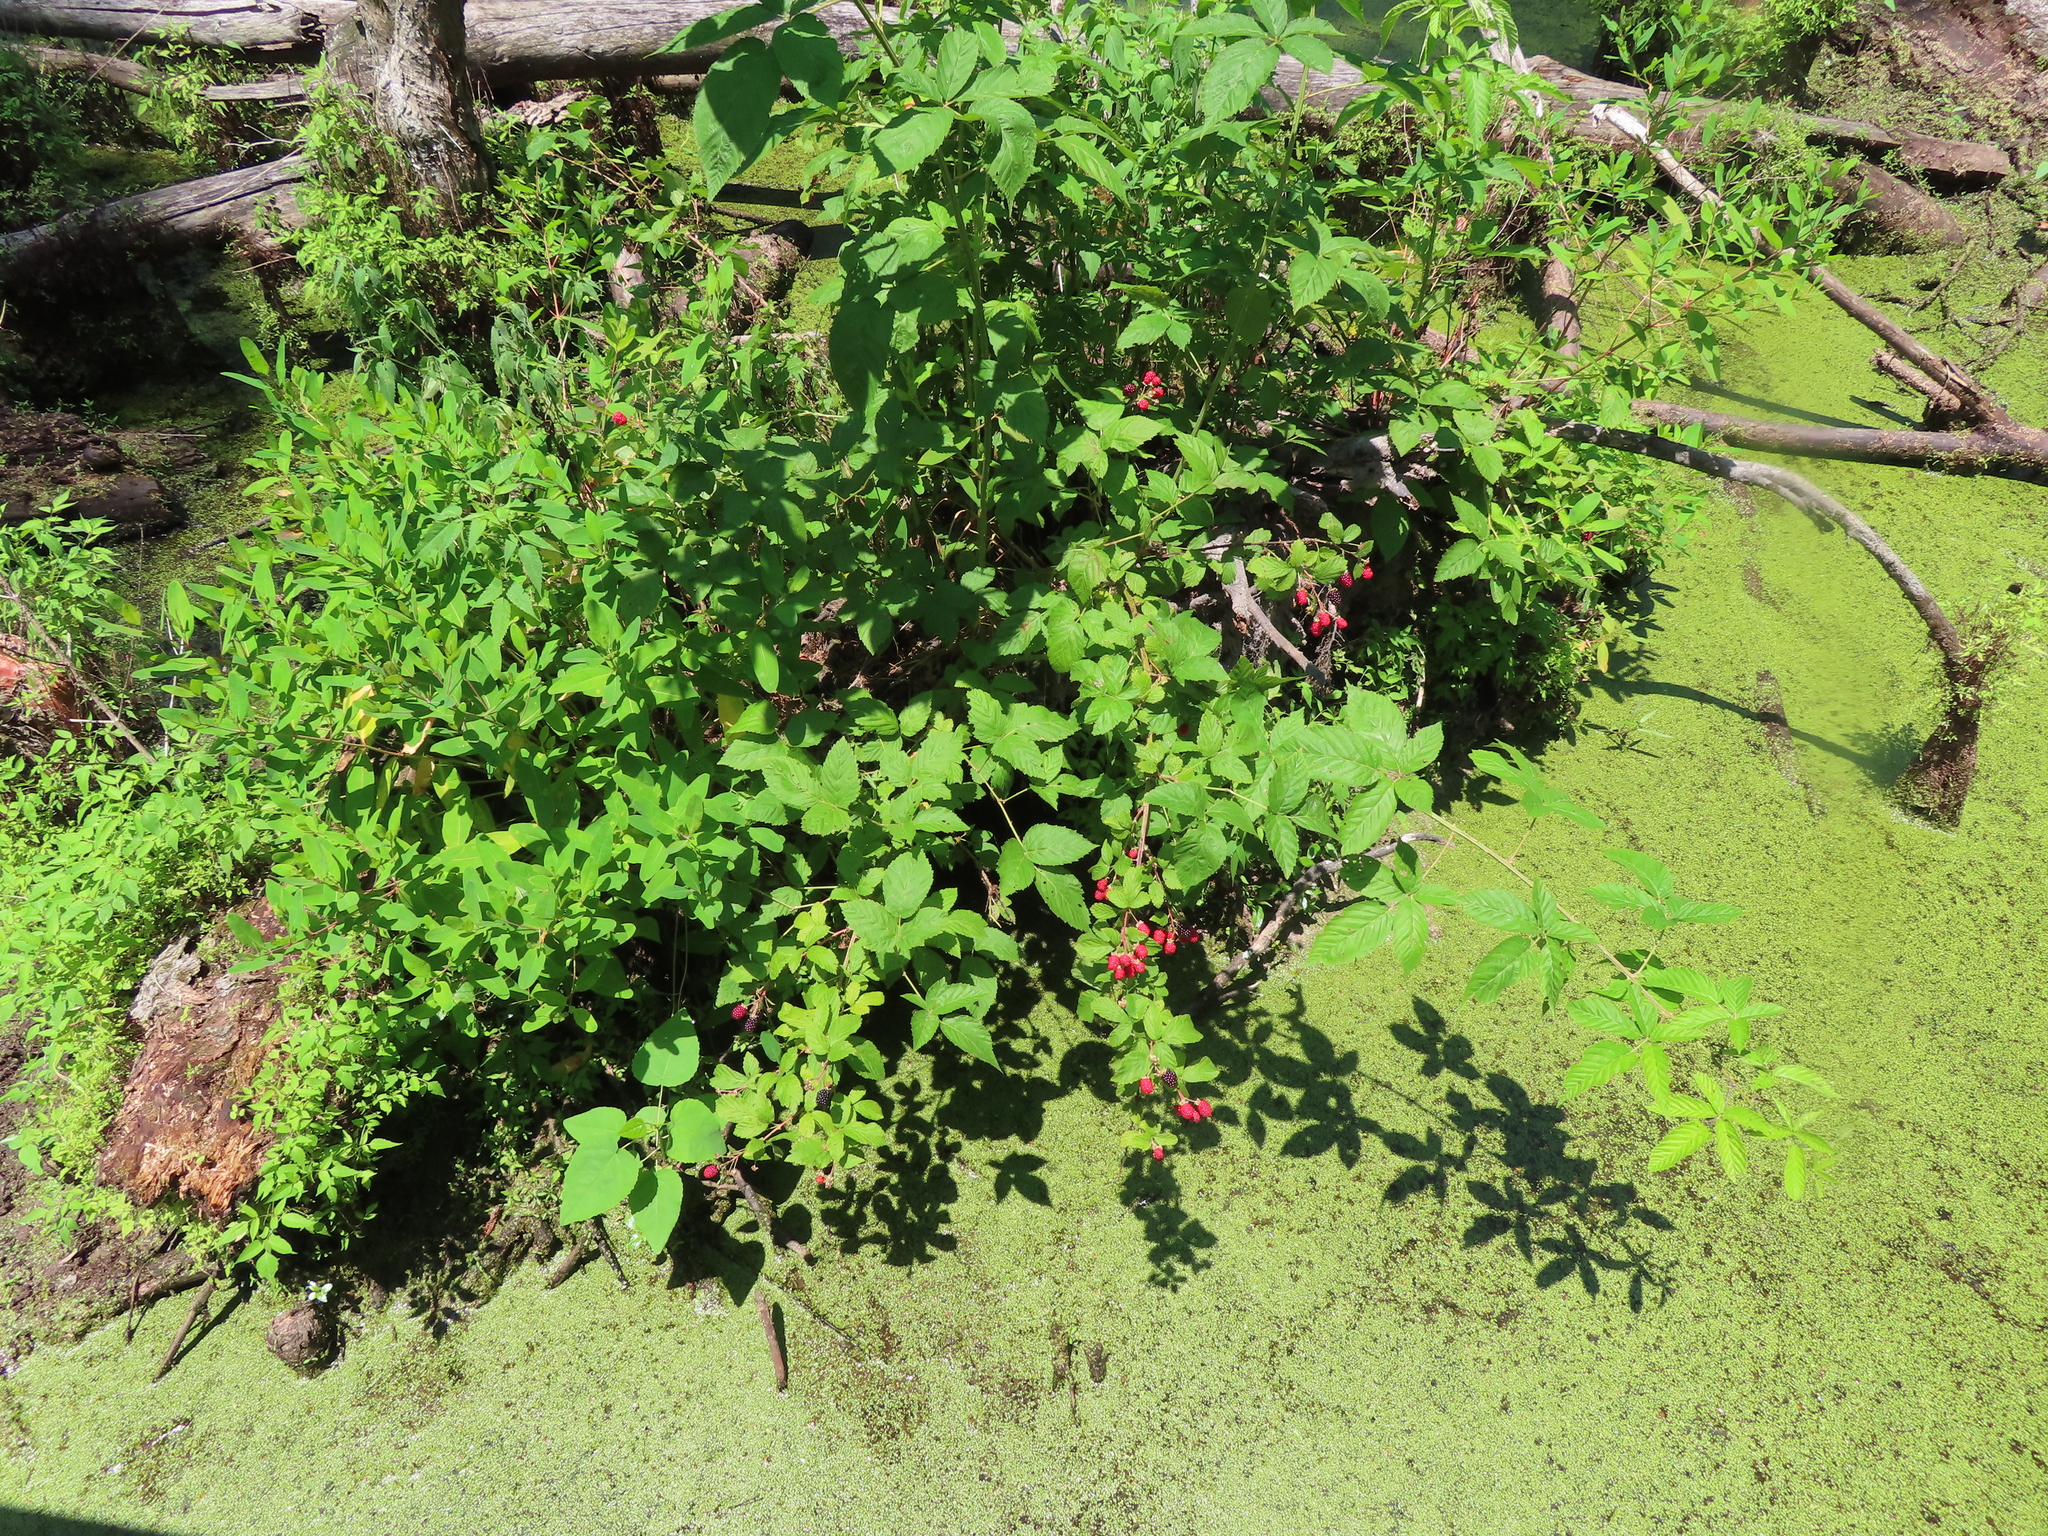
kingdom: Plantae
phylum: Tracheophyta
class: Magnoliopsida
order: Rosales
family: Rosaceae
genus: Rubus
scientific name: Rubus occidentalis
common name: Black raspberry
